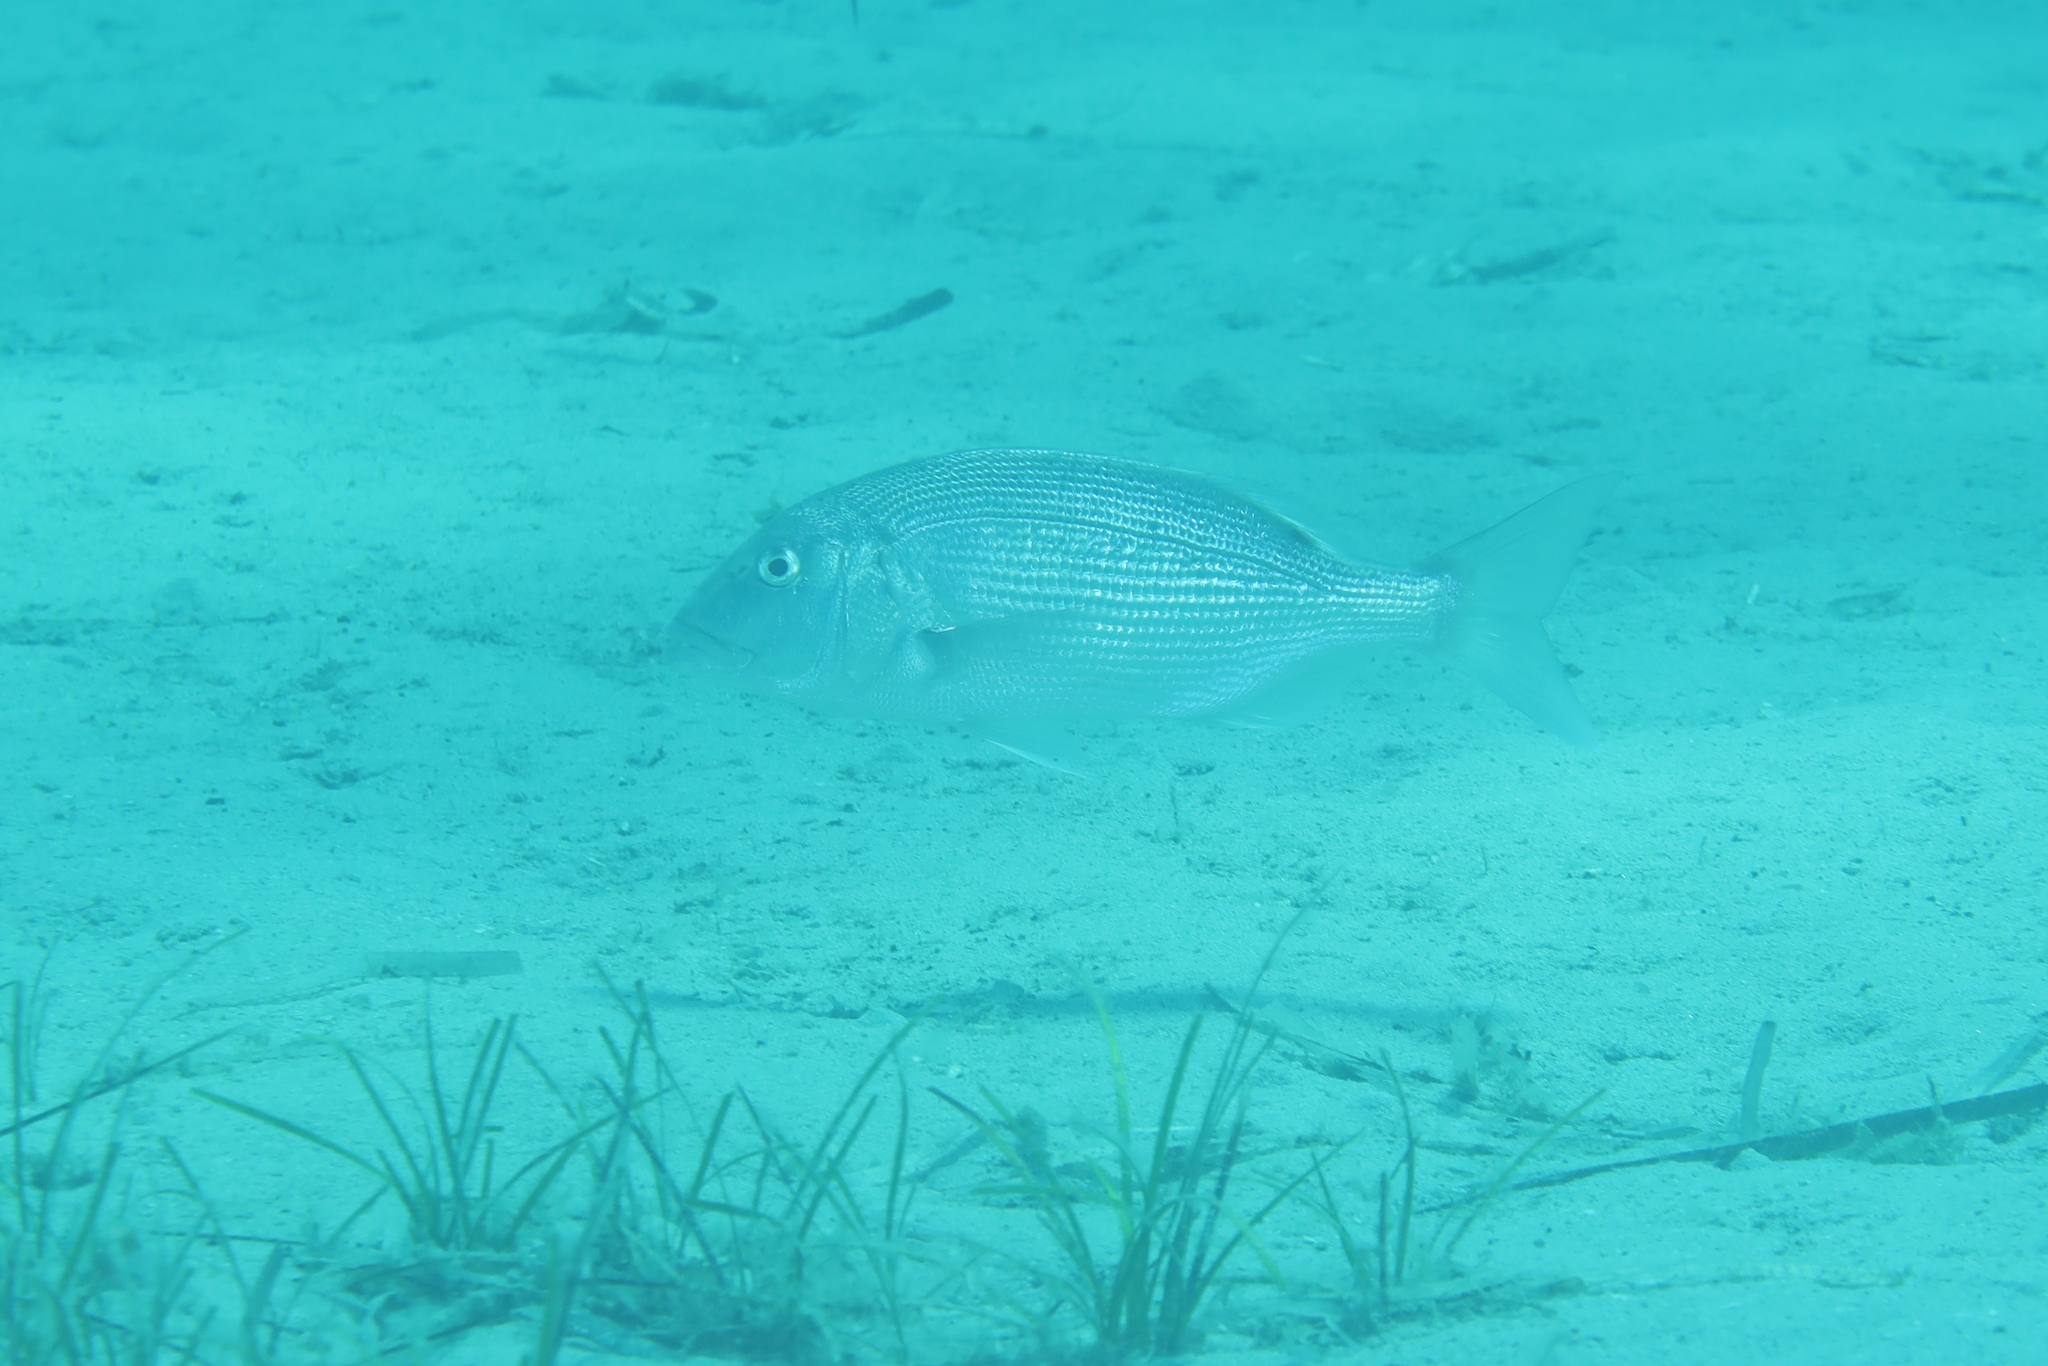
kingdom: Animalia
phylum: Chordata
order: Perciformes
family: Sparidae
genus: Dentex
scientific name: Dentex dentex
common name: Dentex
